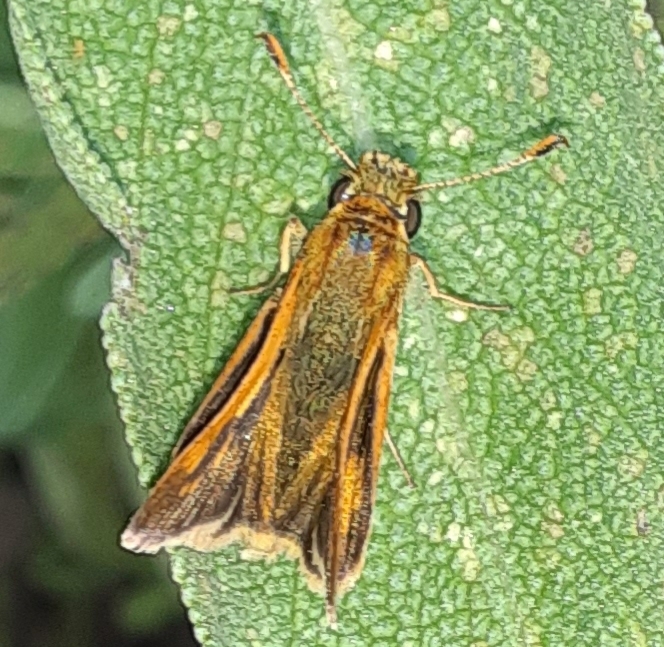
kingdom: Animalia
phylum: Arthropoda
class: Insecta
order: Lepidoptera
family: Hesperiidae
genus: Polites
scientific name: Polites coras
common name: Peck's skipper
